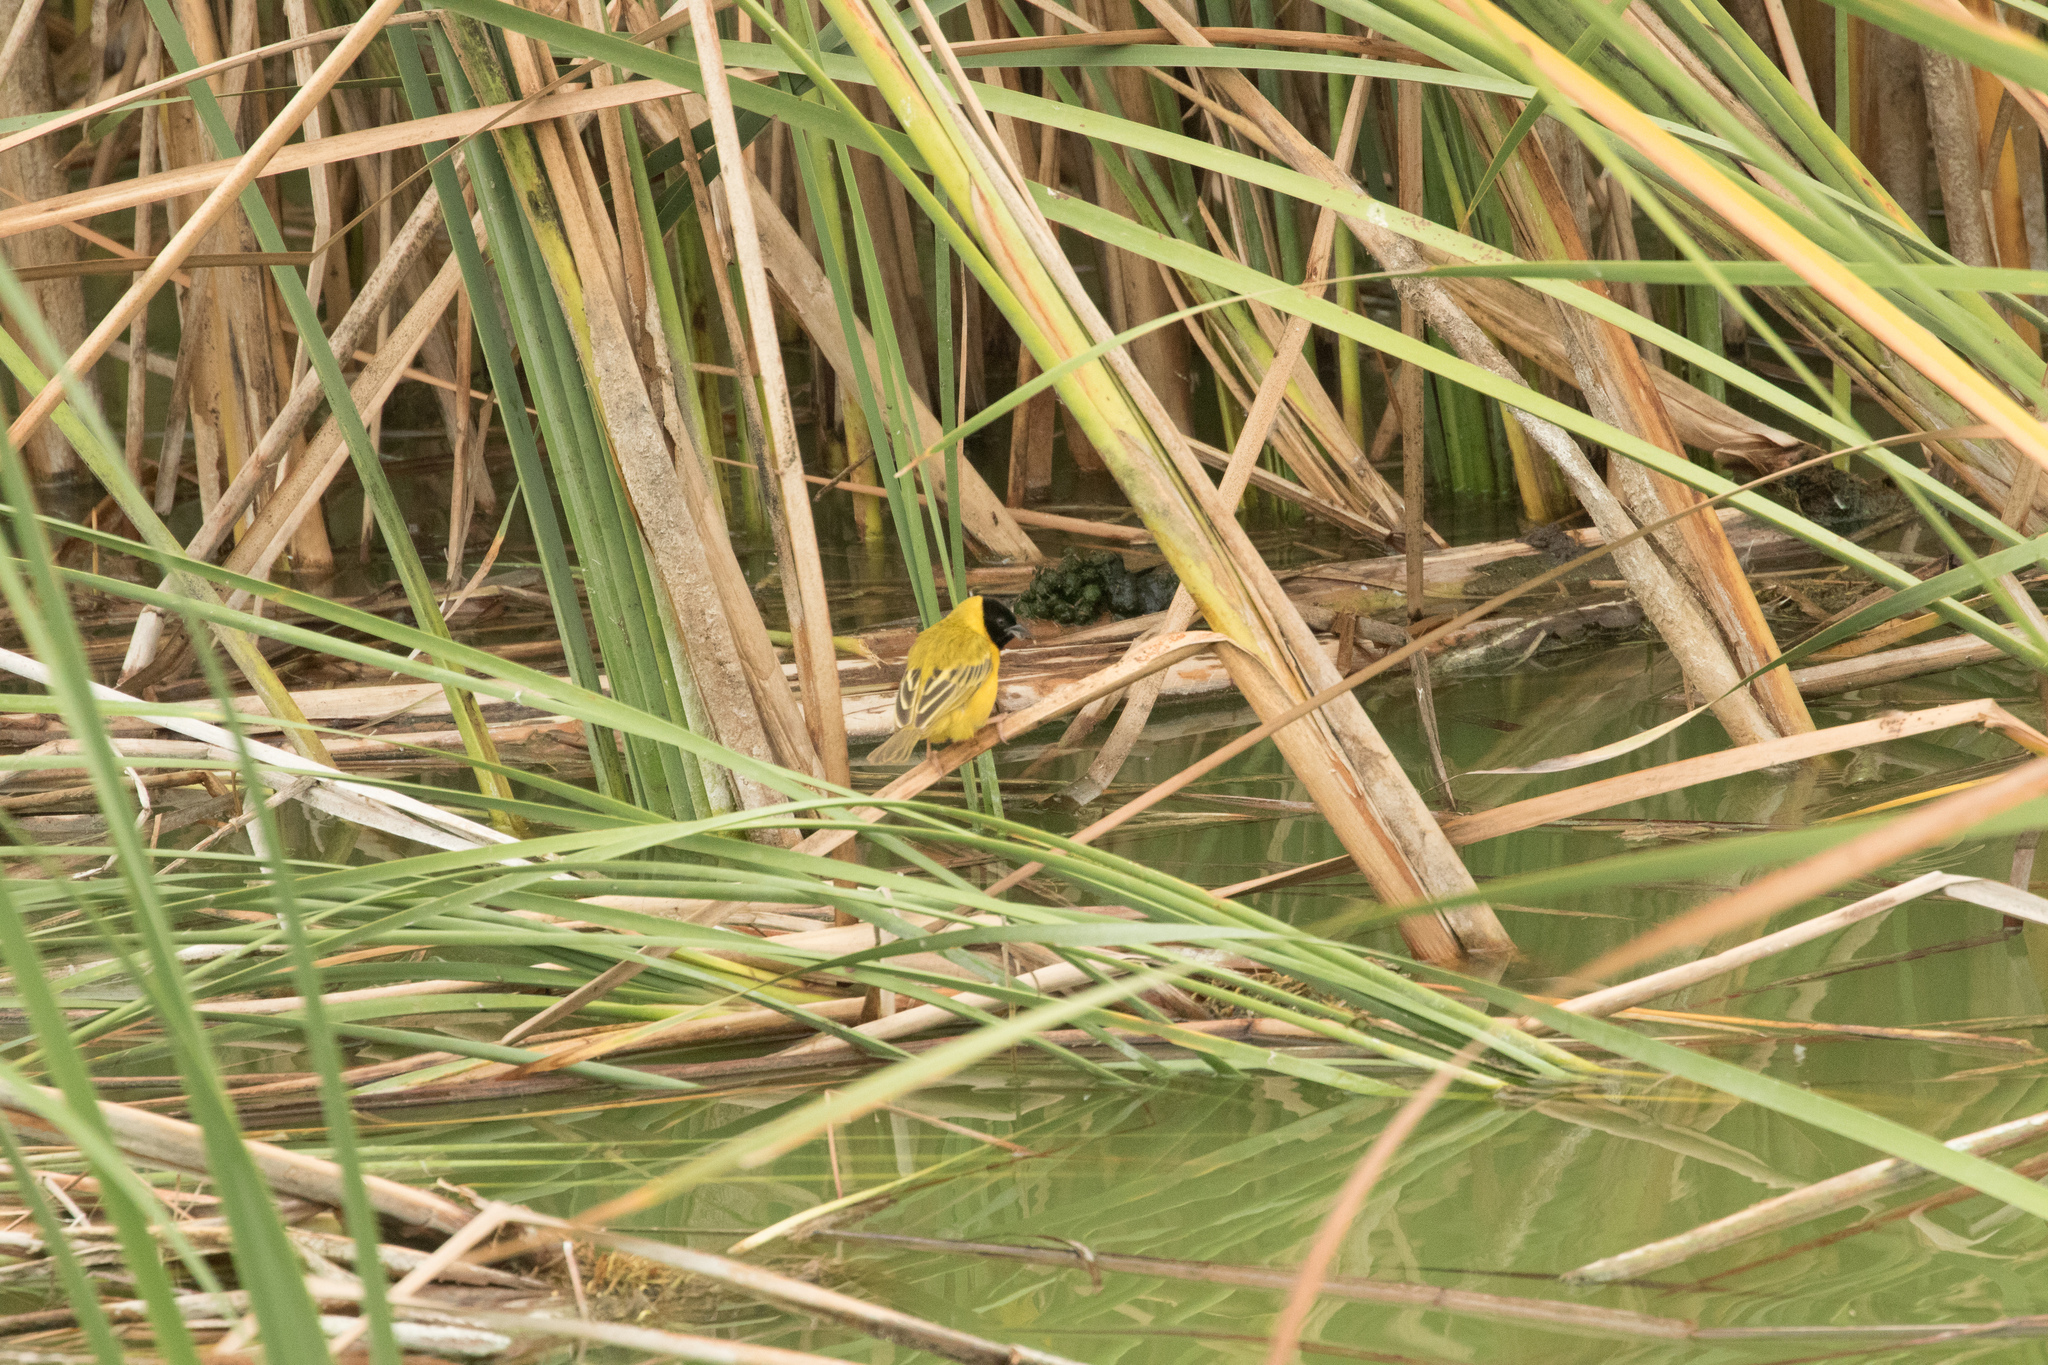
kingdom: Animalia
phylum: Chordata
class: Aves
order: Passeriformes
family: Ploceidae
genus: Ploceus
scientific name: Ploceus melanocephalus
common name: Black-headed weaver
